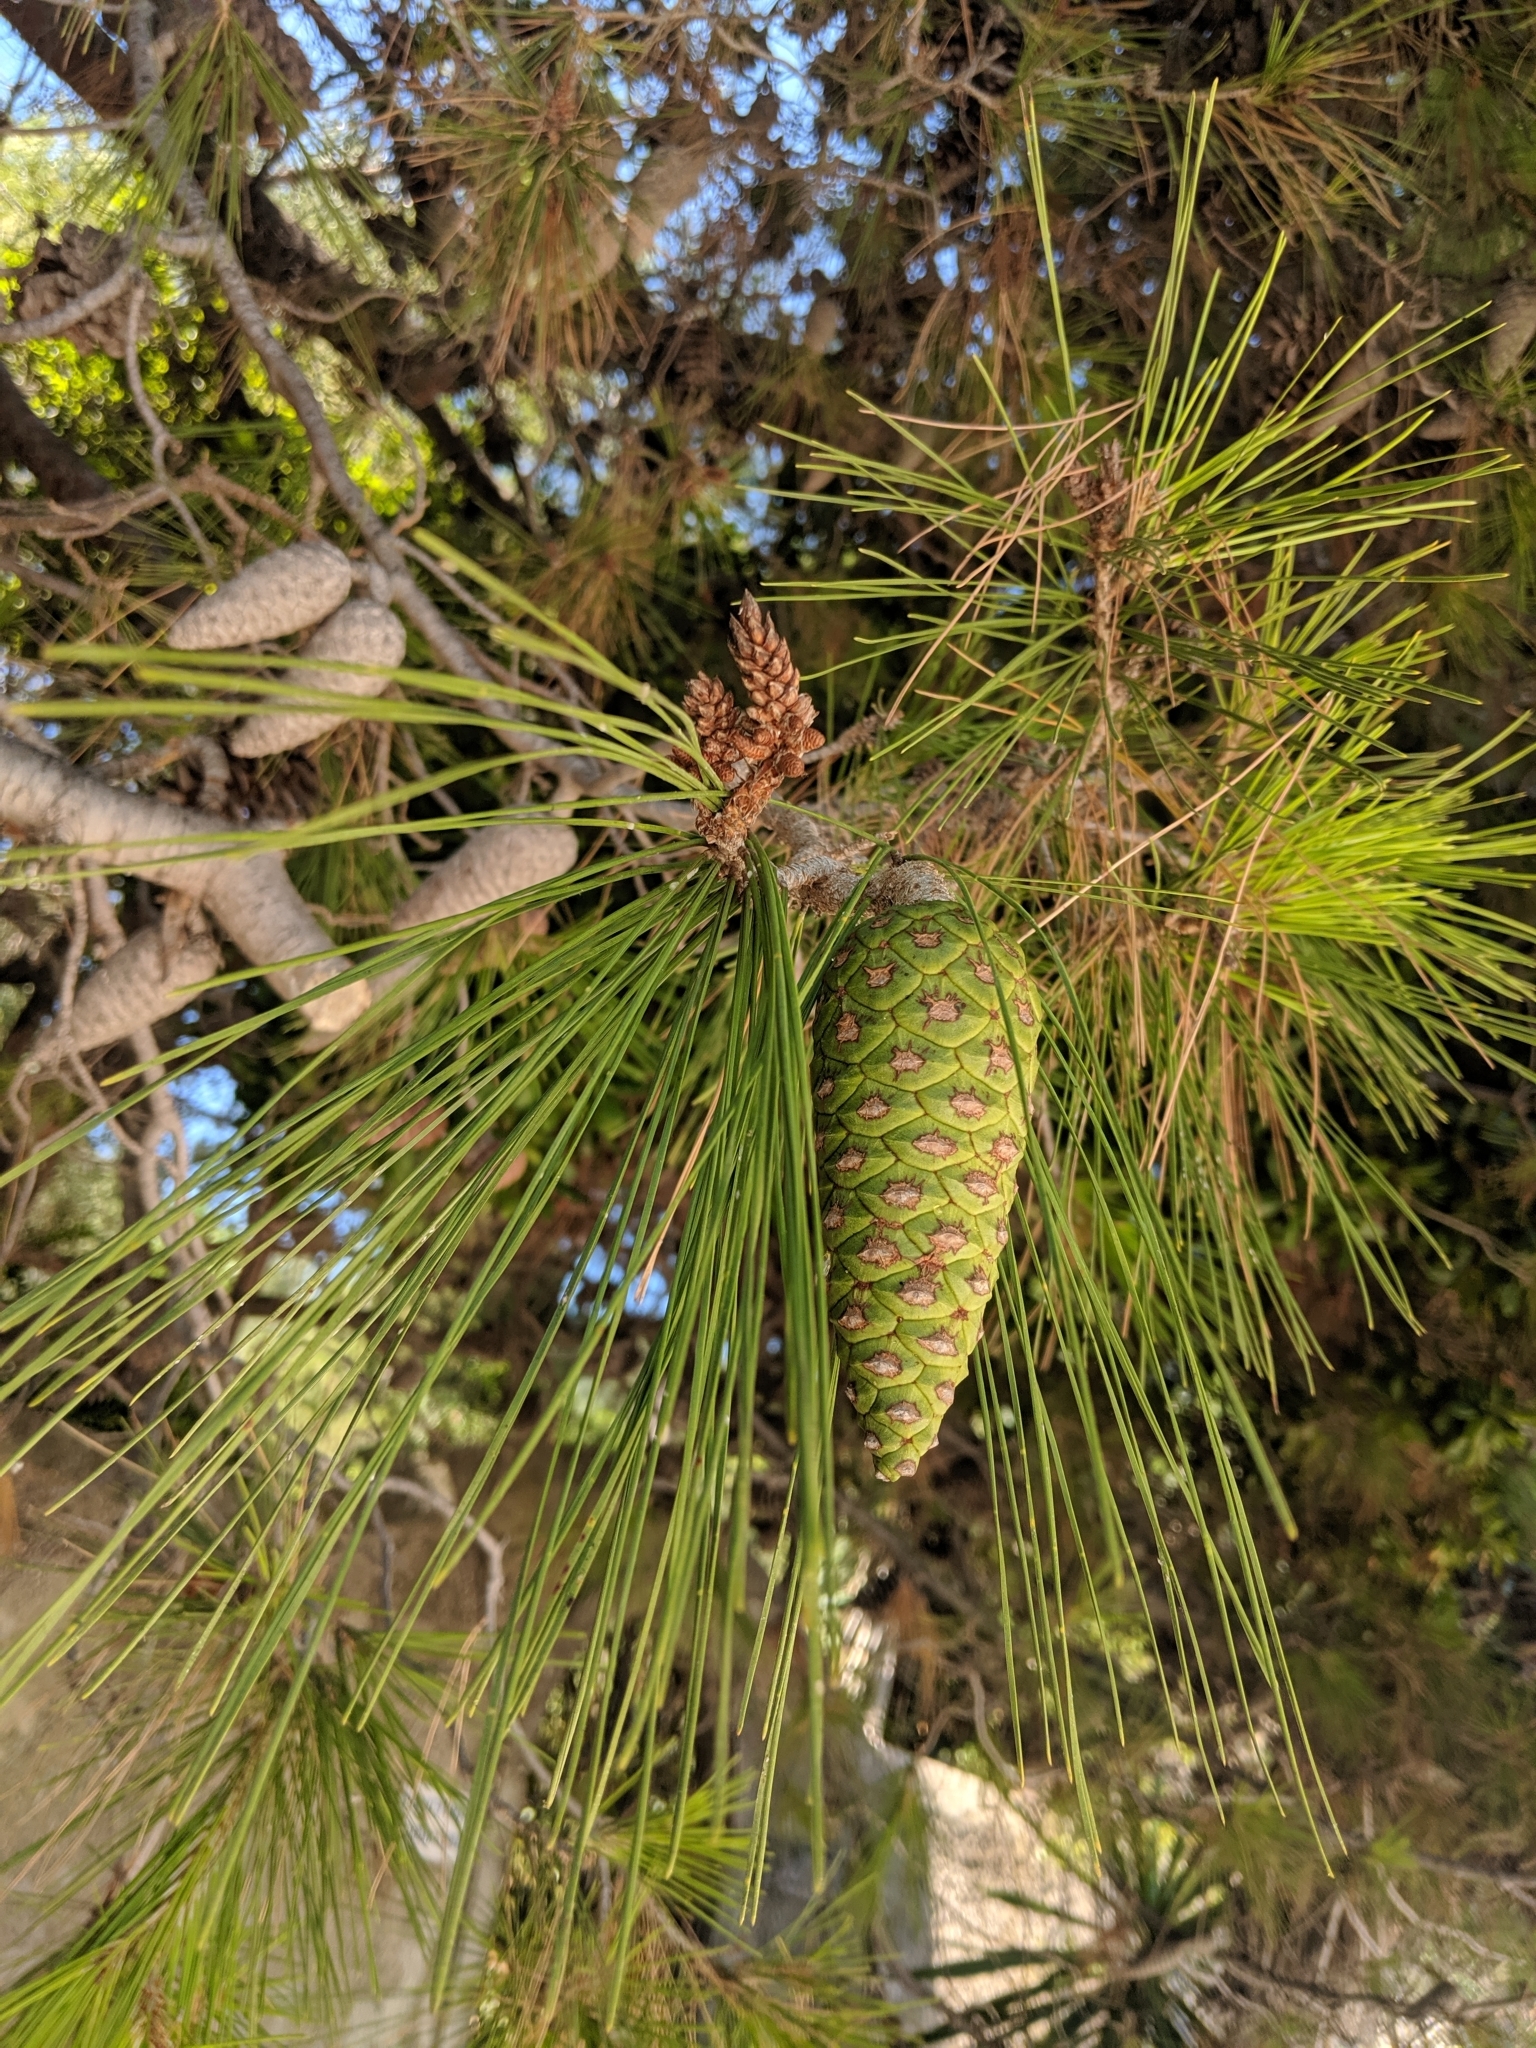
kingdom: Plantae
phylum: Tracheophyta
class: Pinopsida
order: Pinales
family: Pinaceae
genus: Pinus
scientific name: Pinus halepensis
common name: Aleppo pine
